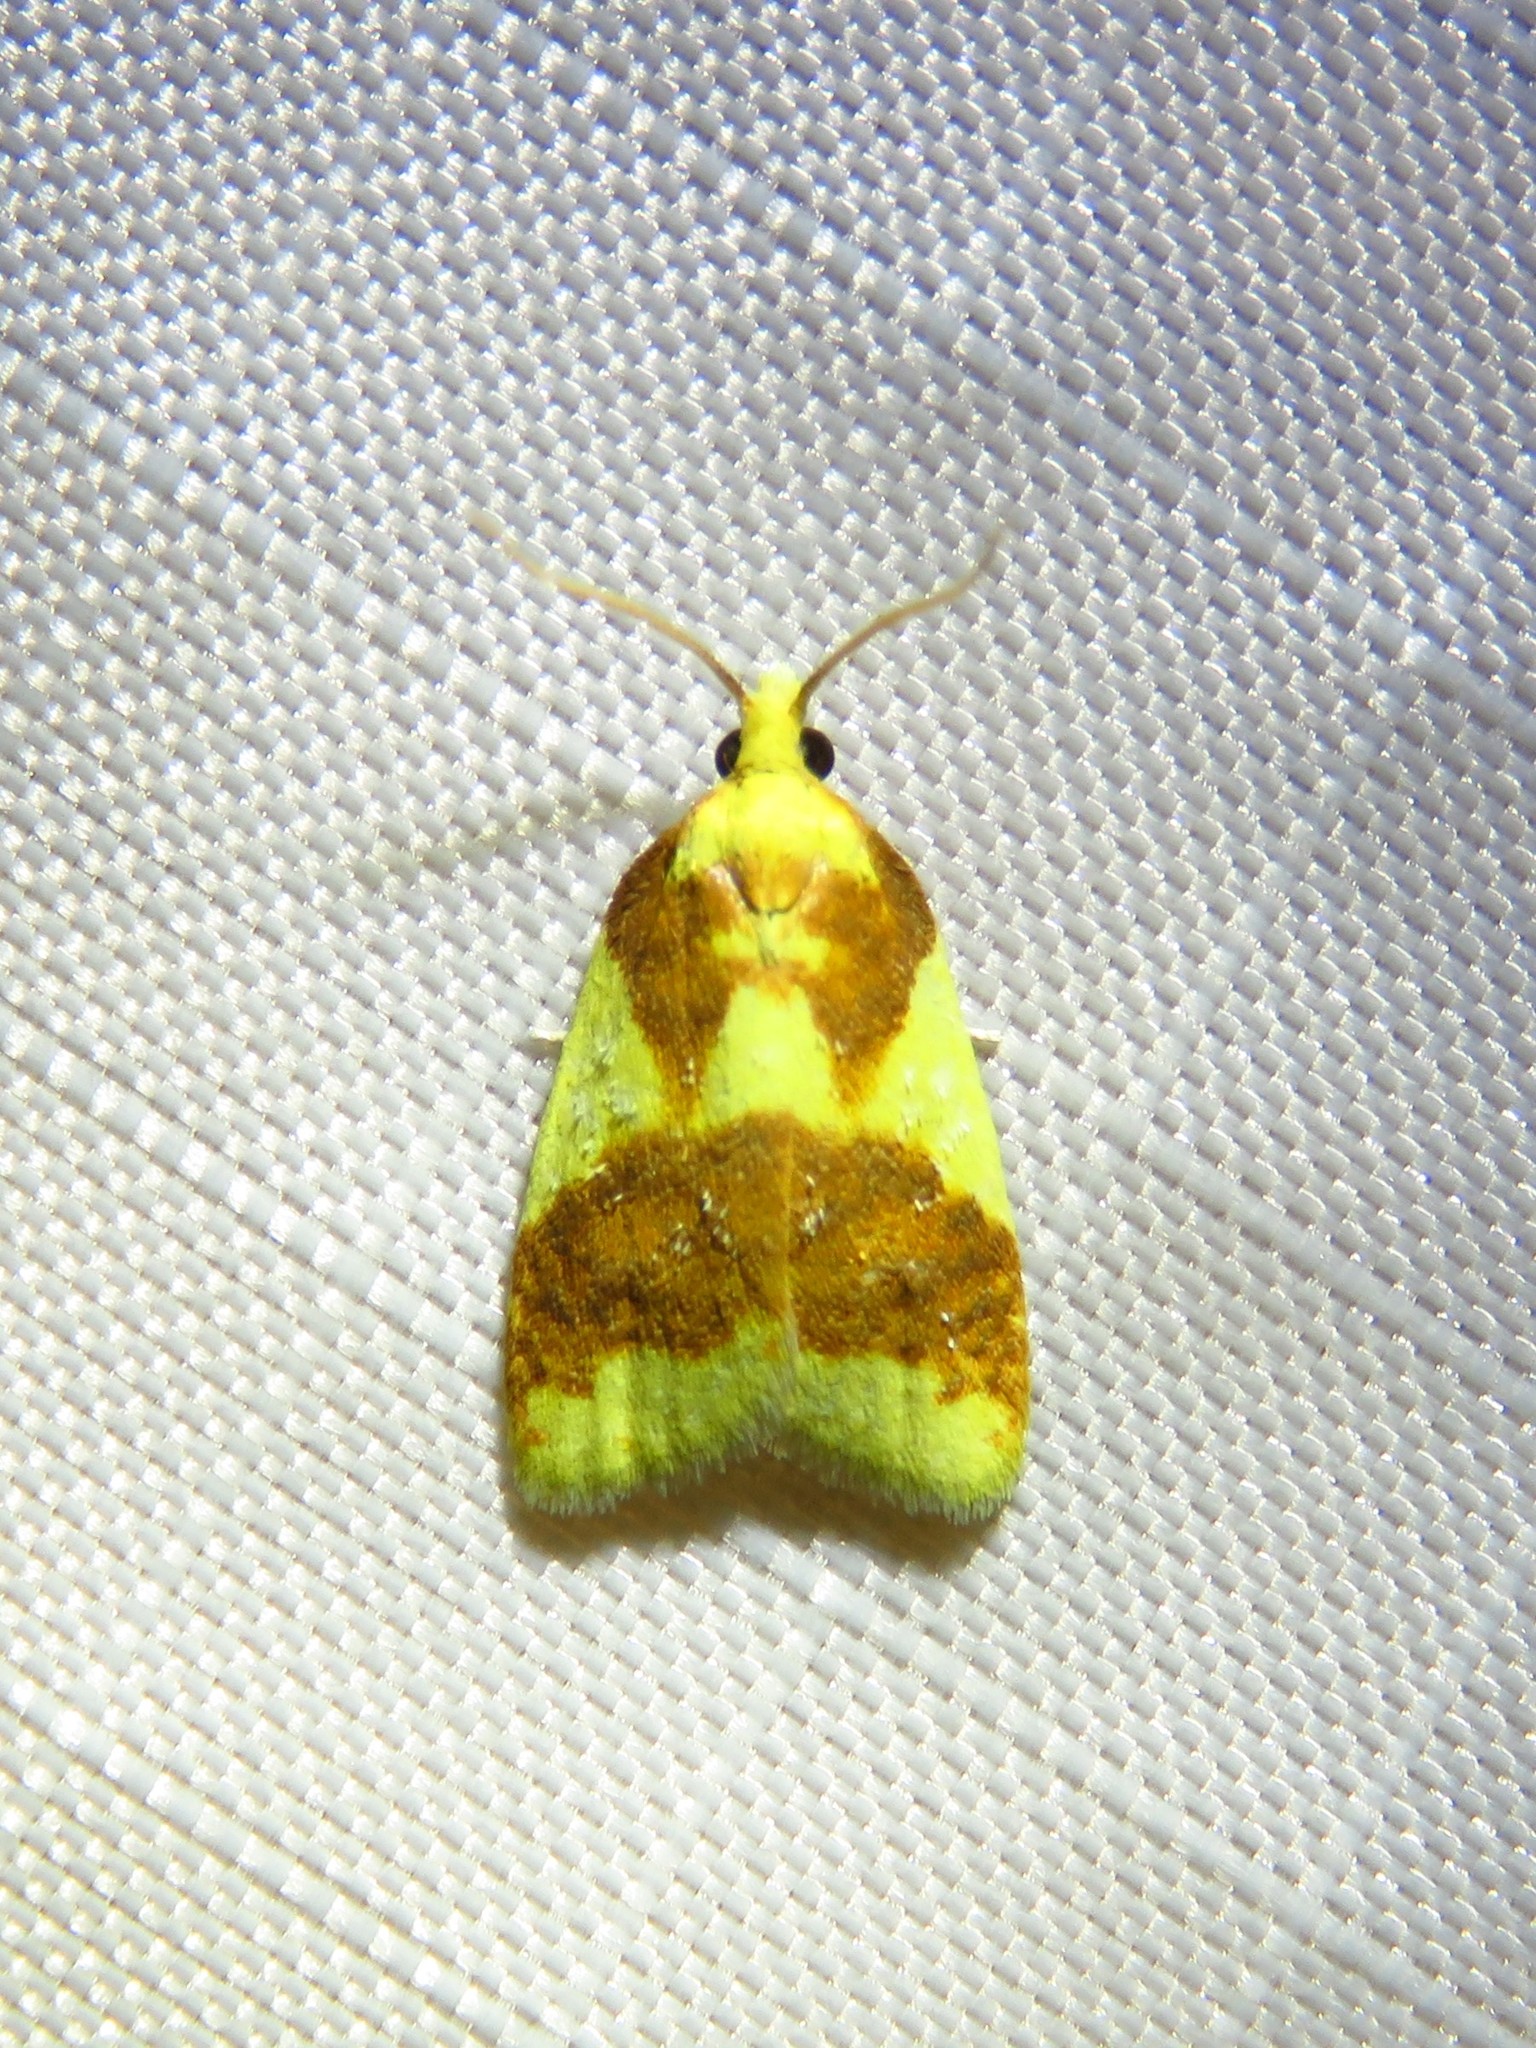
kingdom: Animalia
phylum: Arthropoda
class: Insecta
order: Lepidoptera
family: Tortricidae
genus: Sparganothis
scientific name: Sparganothis pulcherrimana
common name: Beautiful sparganothis
